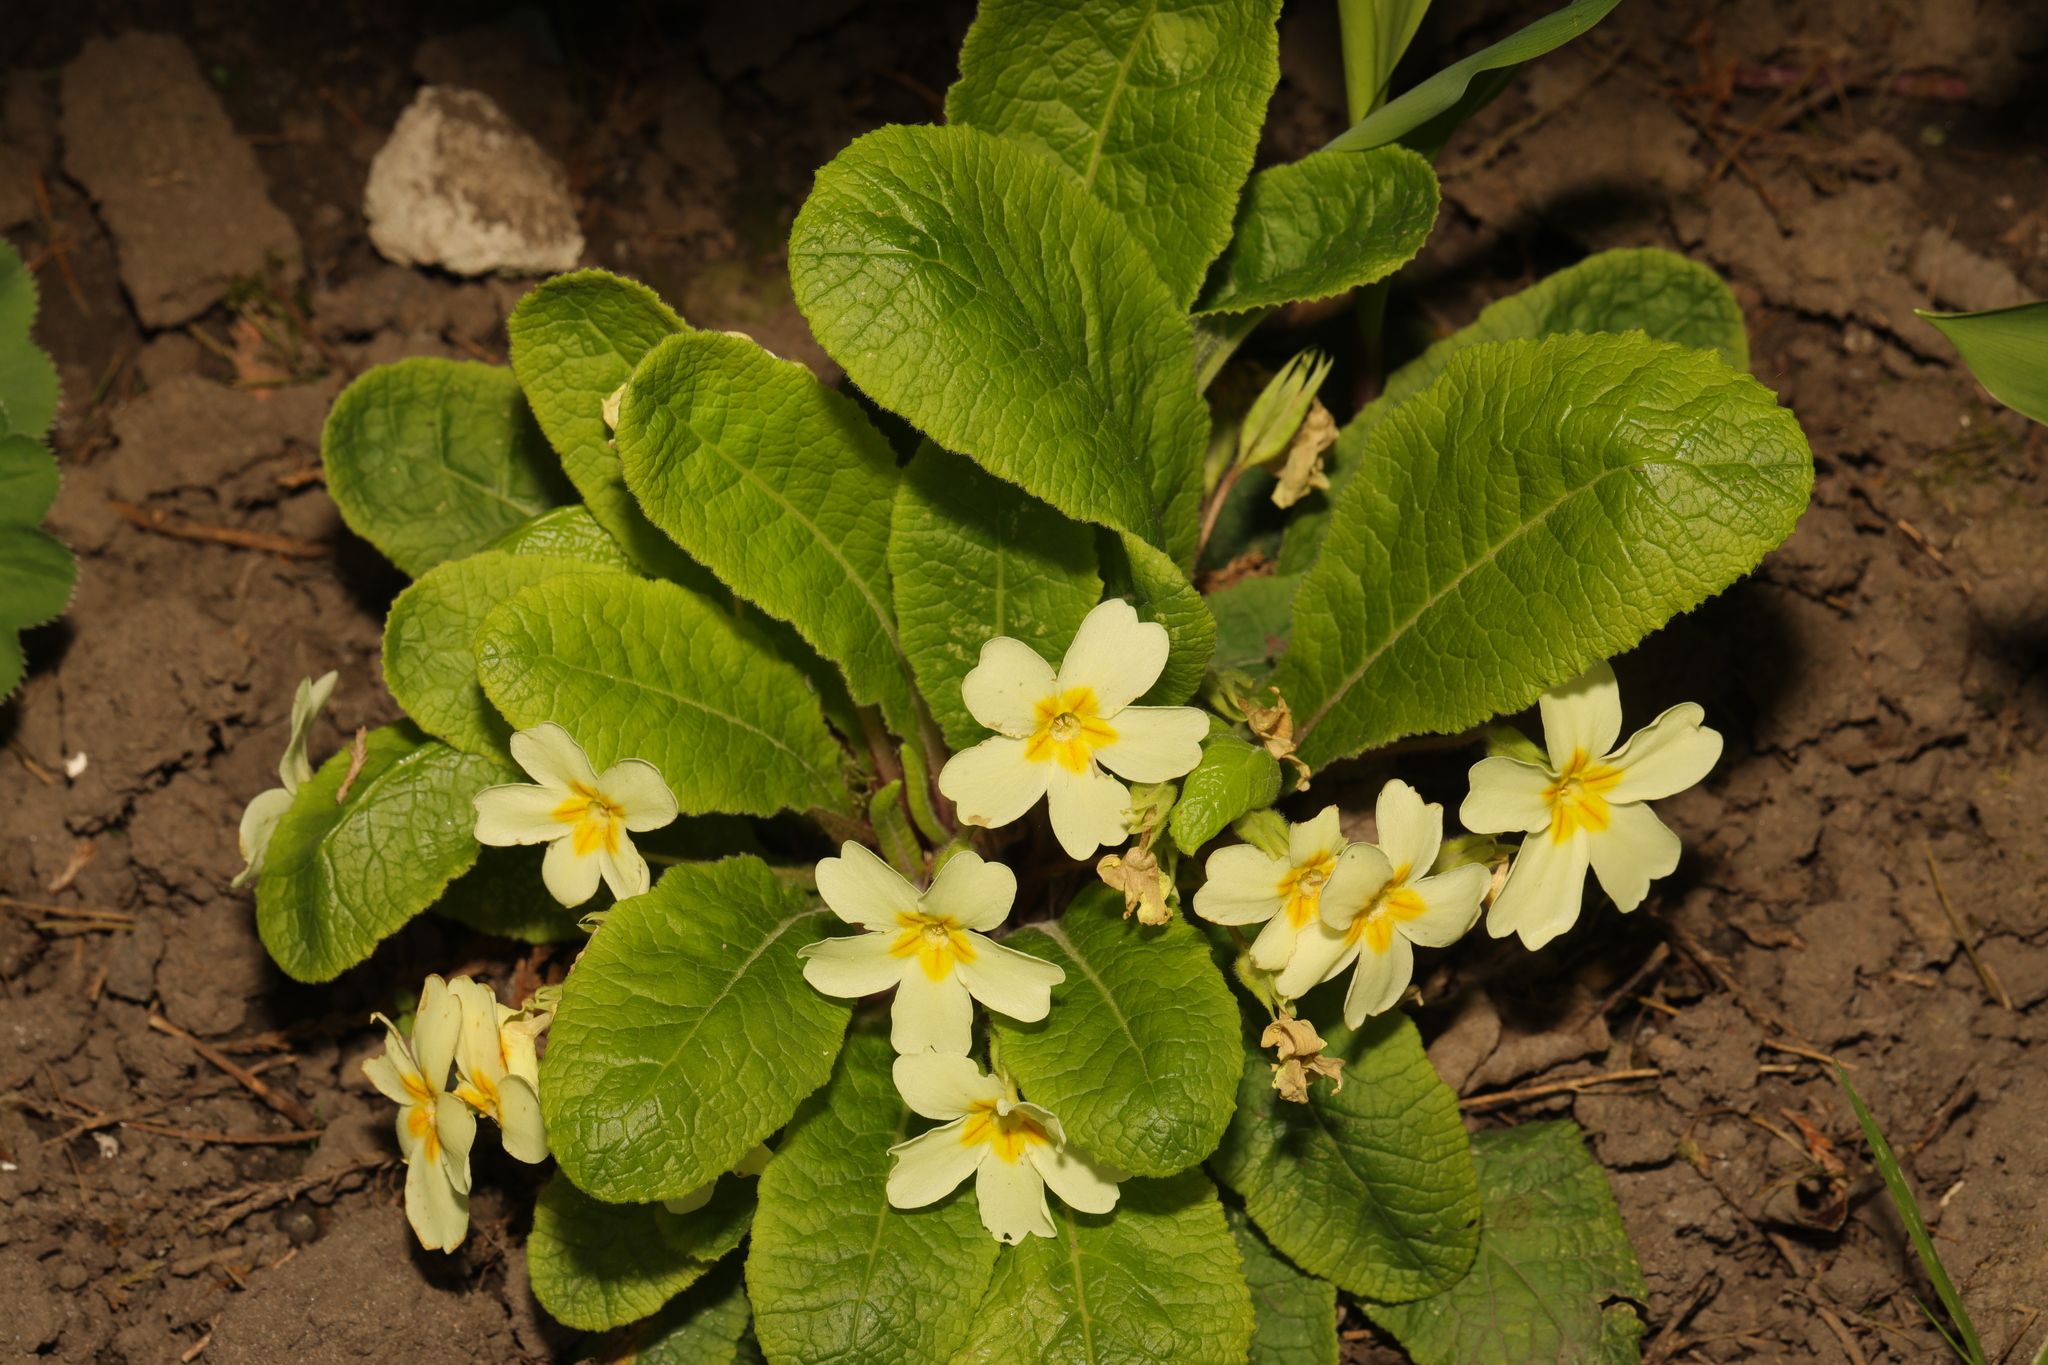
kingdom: Plantae
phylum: Tracheophyta
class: Magnoliopsida
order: Ericales
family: Primulaceae
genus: Primula
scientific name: Primula vulgaris
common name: Primrose
